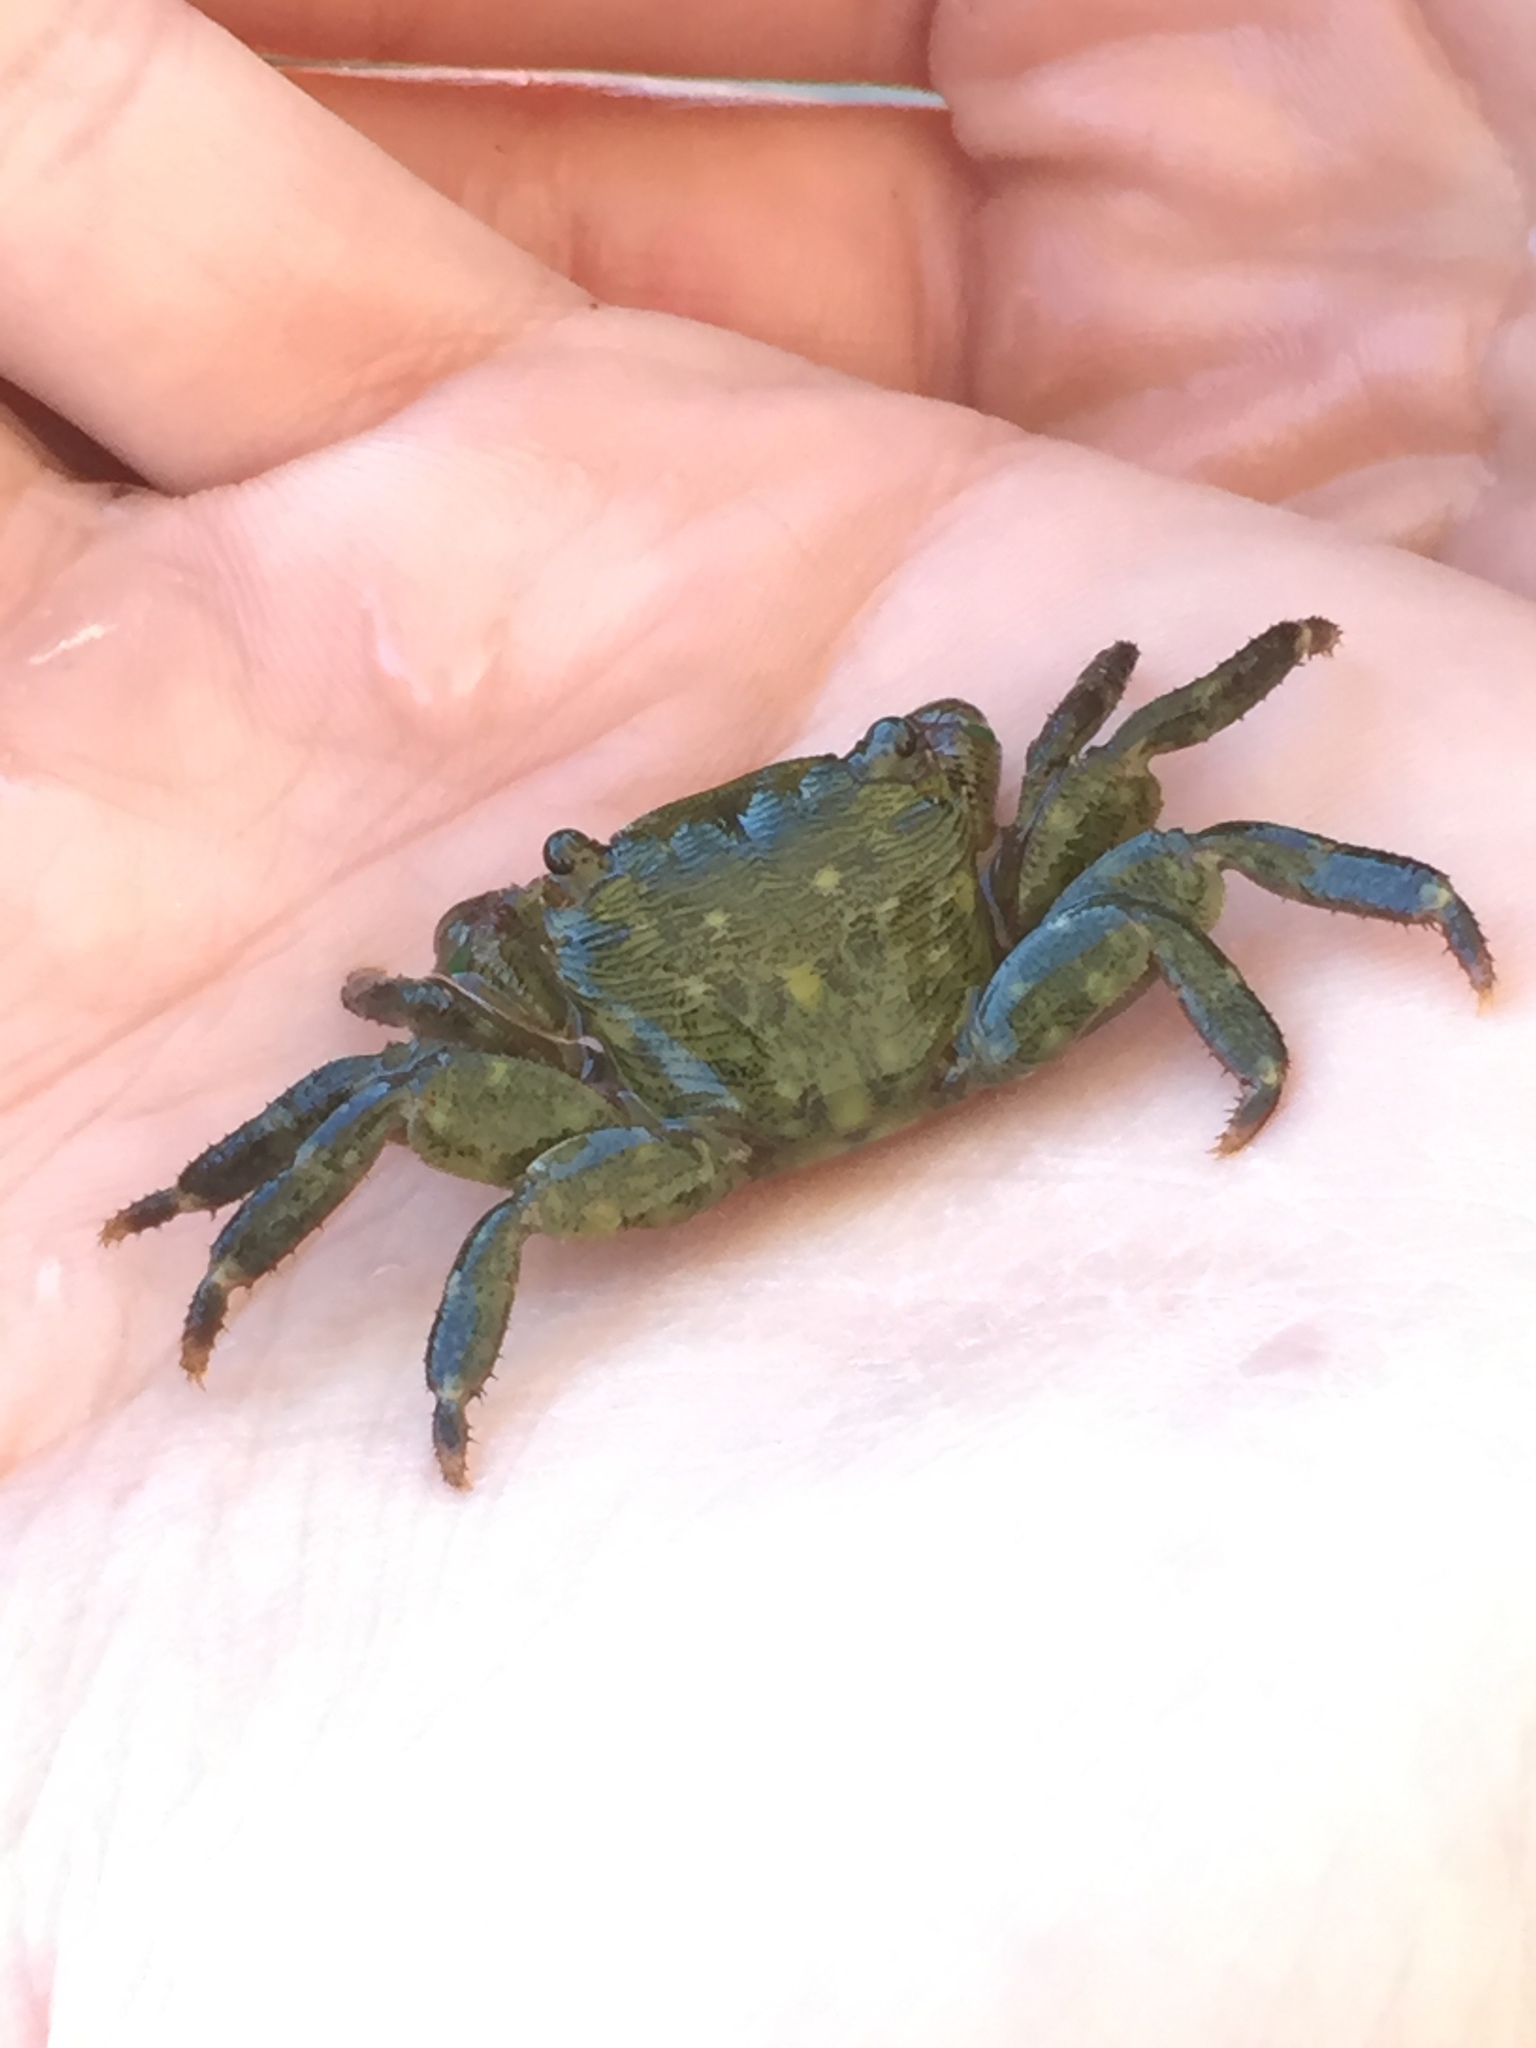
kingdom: Animalia
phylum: Arthropoda
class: Malacostraca
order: Decapoda
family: Grapsidae
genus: Pachygrapsus
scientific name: Pachygrapsus crassipes
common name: Striped shore crab
